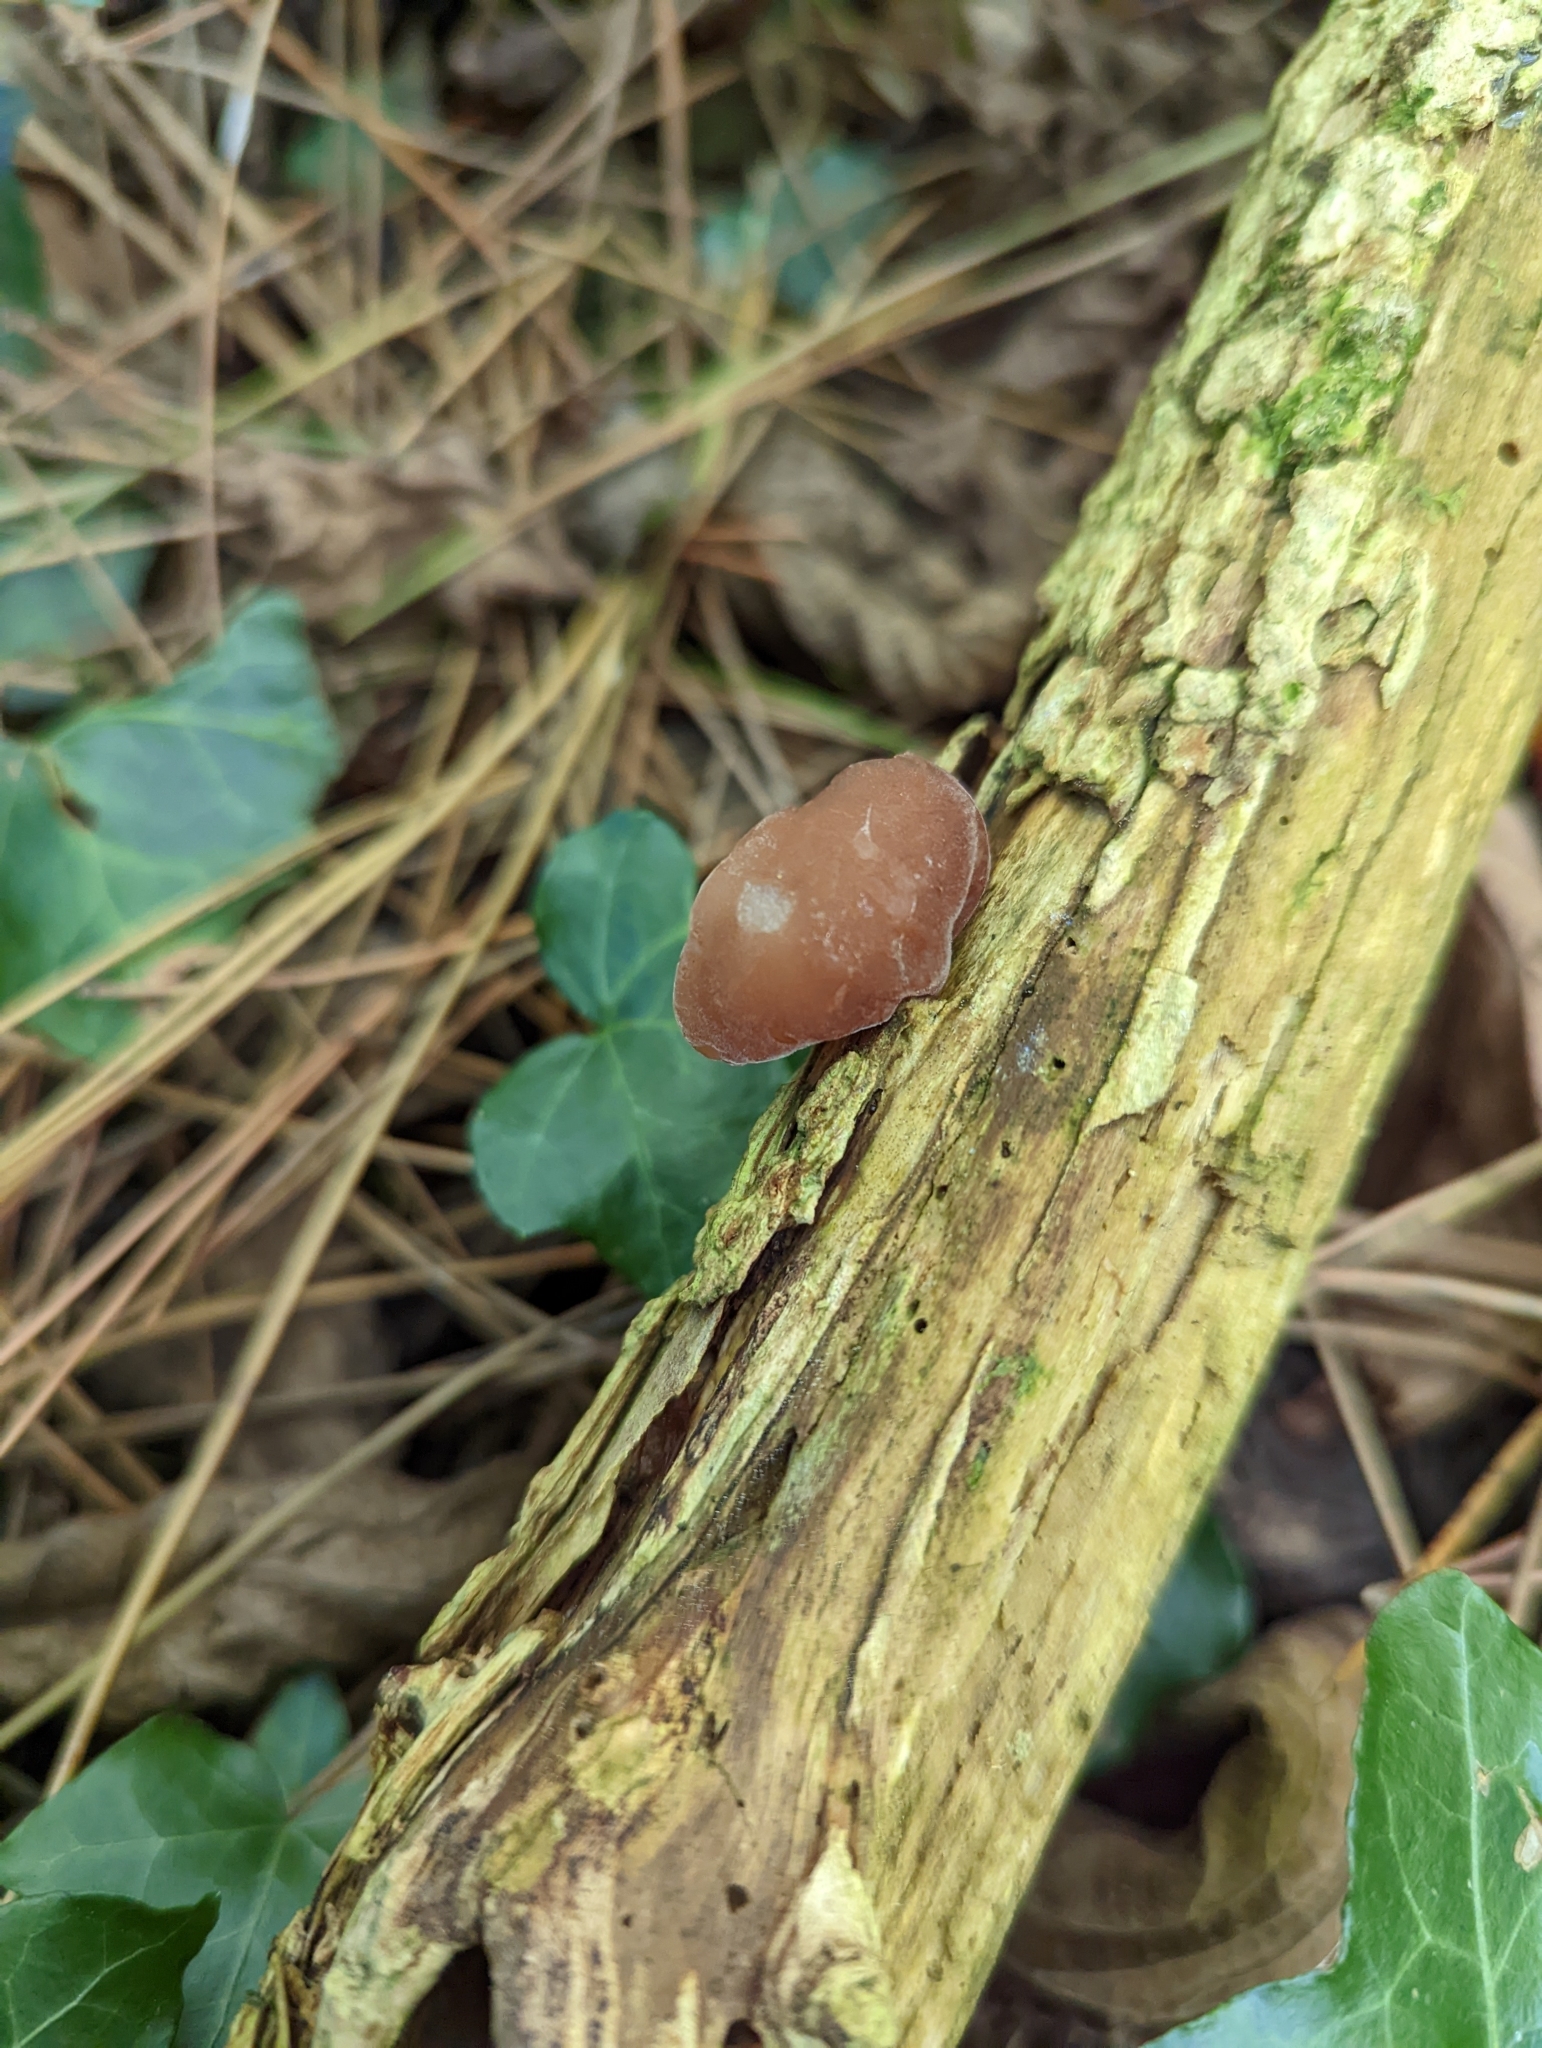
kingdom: Fungi
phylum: Basidiomycota
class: Agaricomycetes
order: Auriculariales
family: Auriculariaceae
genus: Auricularia
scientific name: Auricularia auricula-judae
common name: Jelly ear
